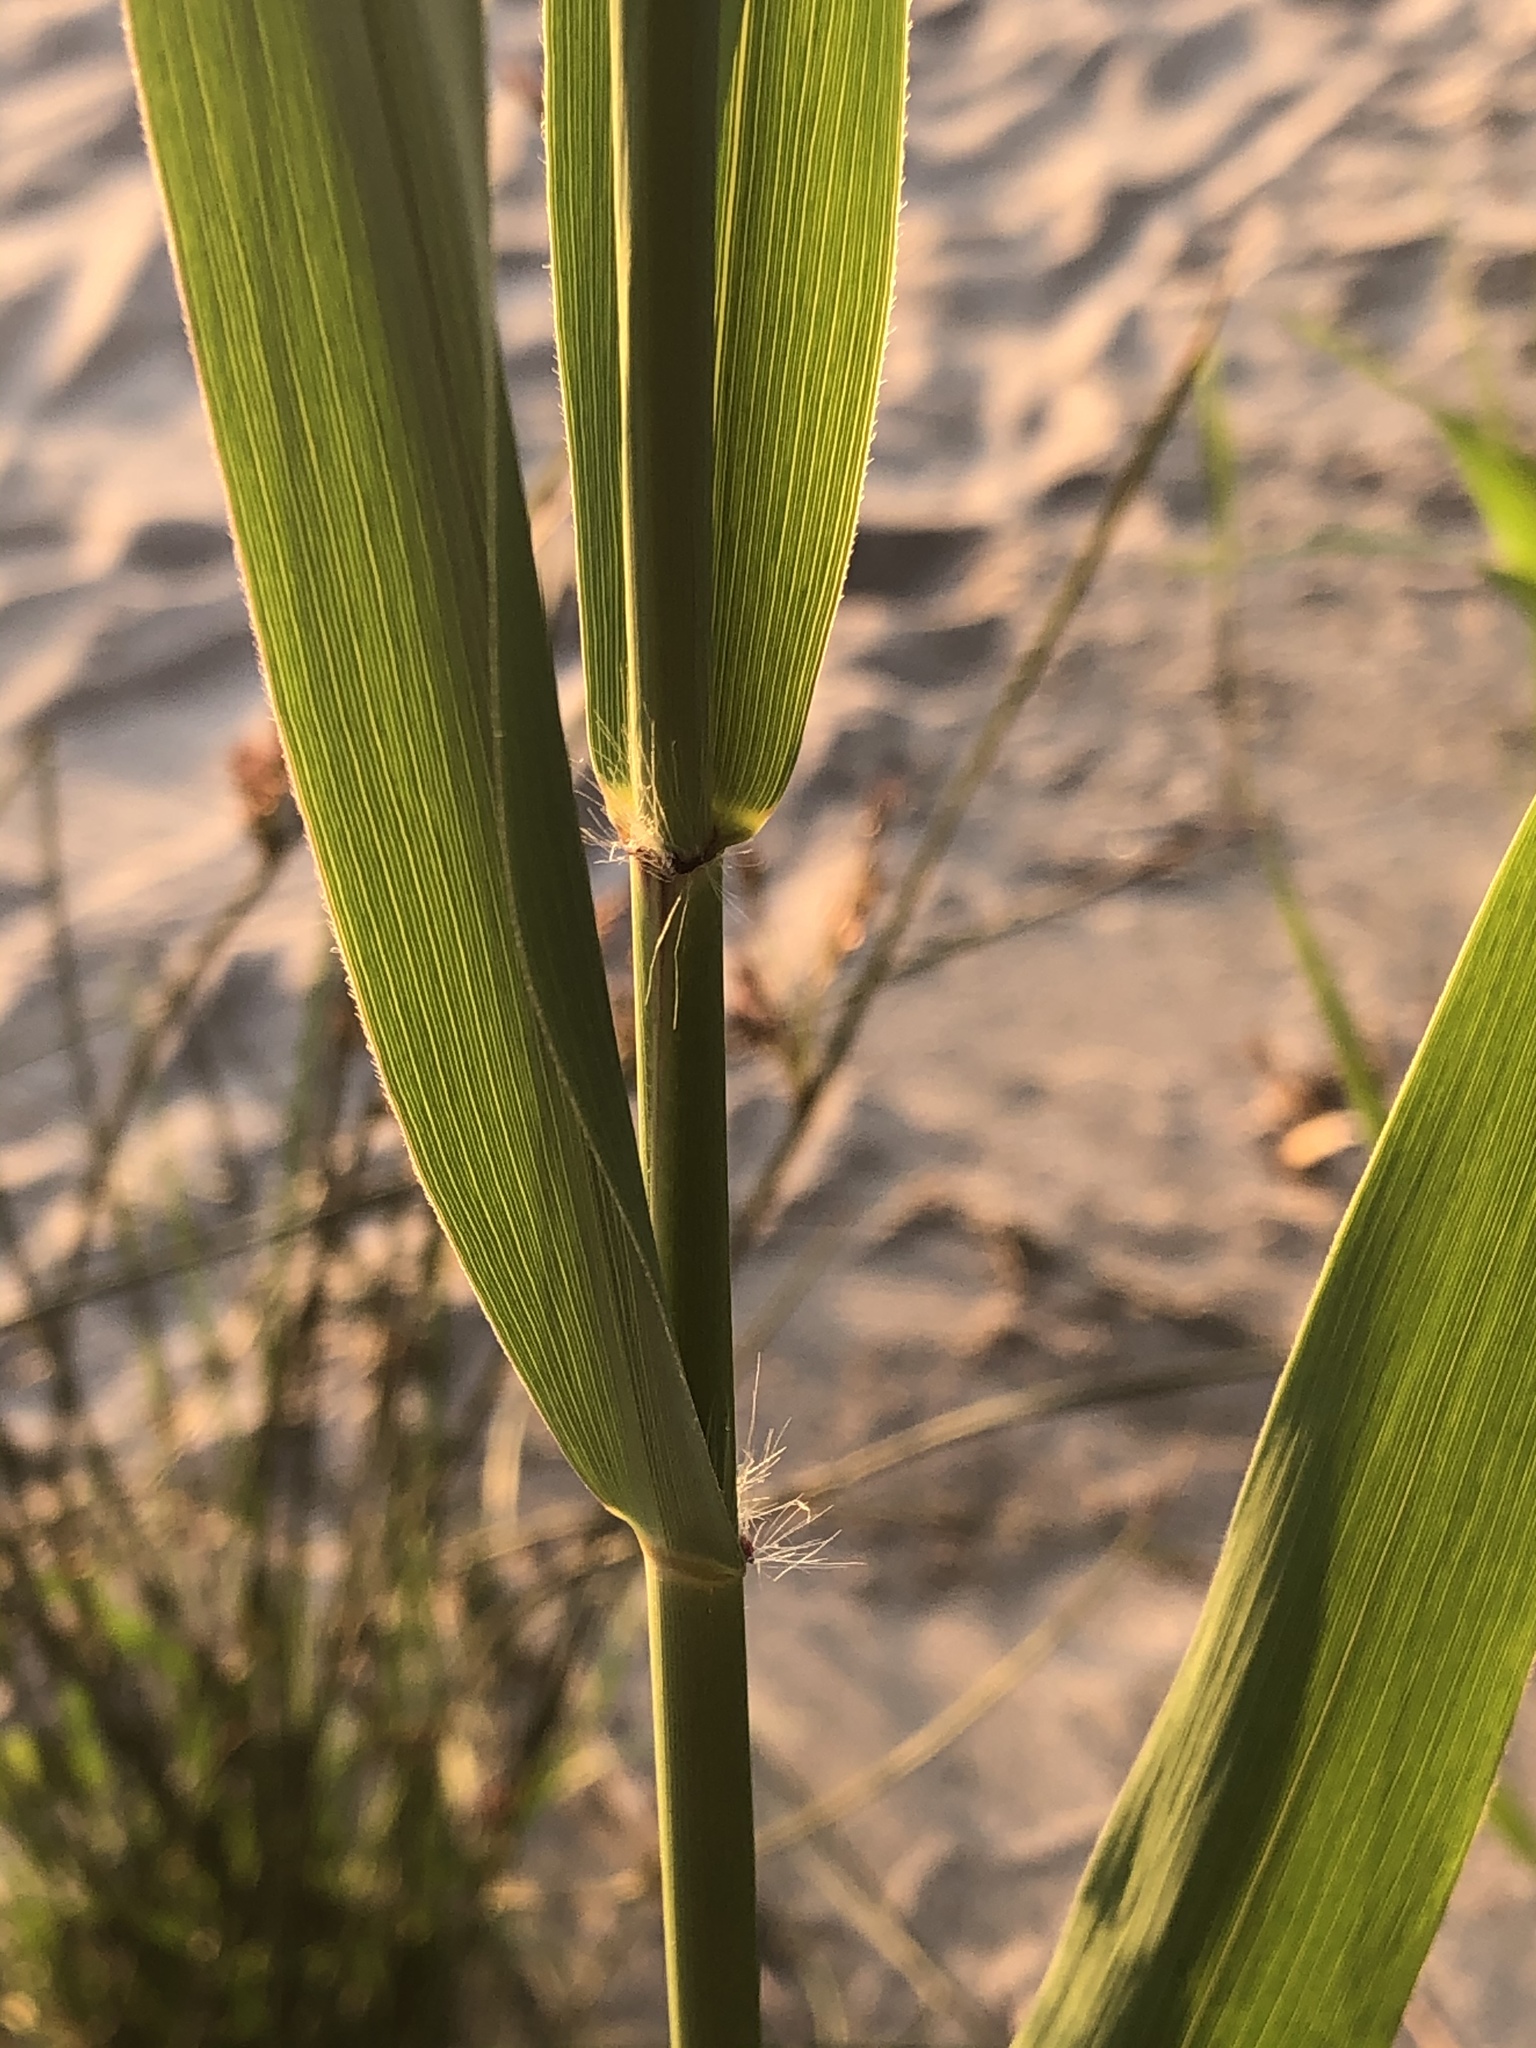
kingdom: Plantae
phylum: Tracheophyta
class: Liliopsida
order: Poales
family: Poaceae
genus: Phragmites
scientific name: Phragmites australis
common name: Common reed
